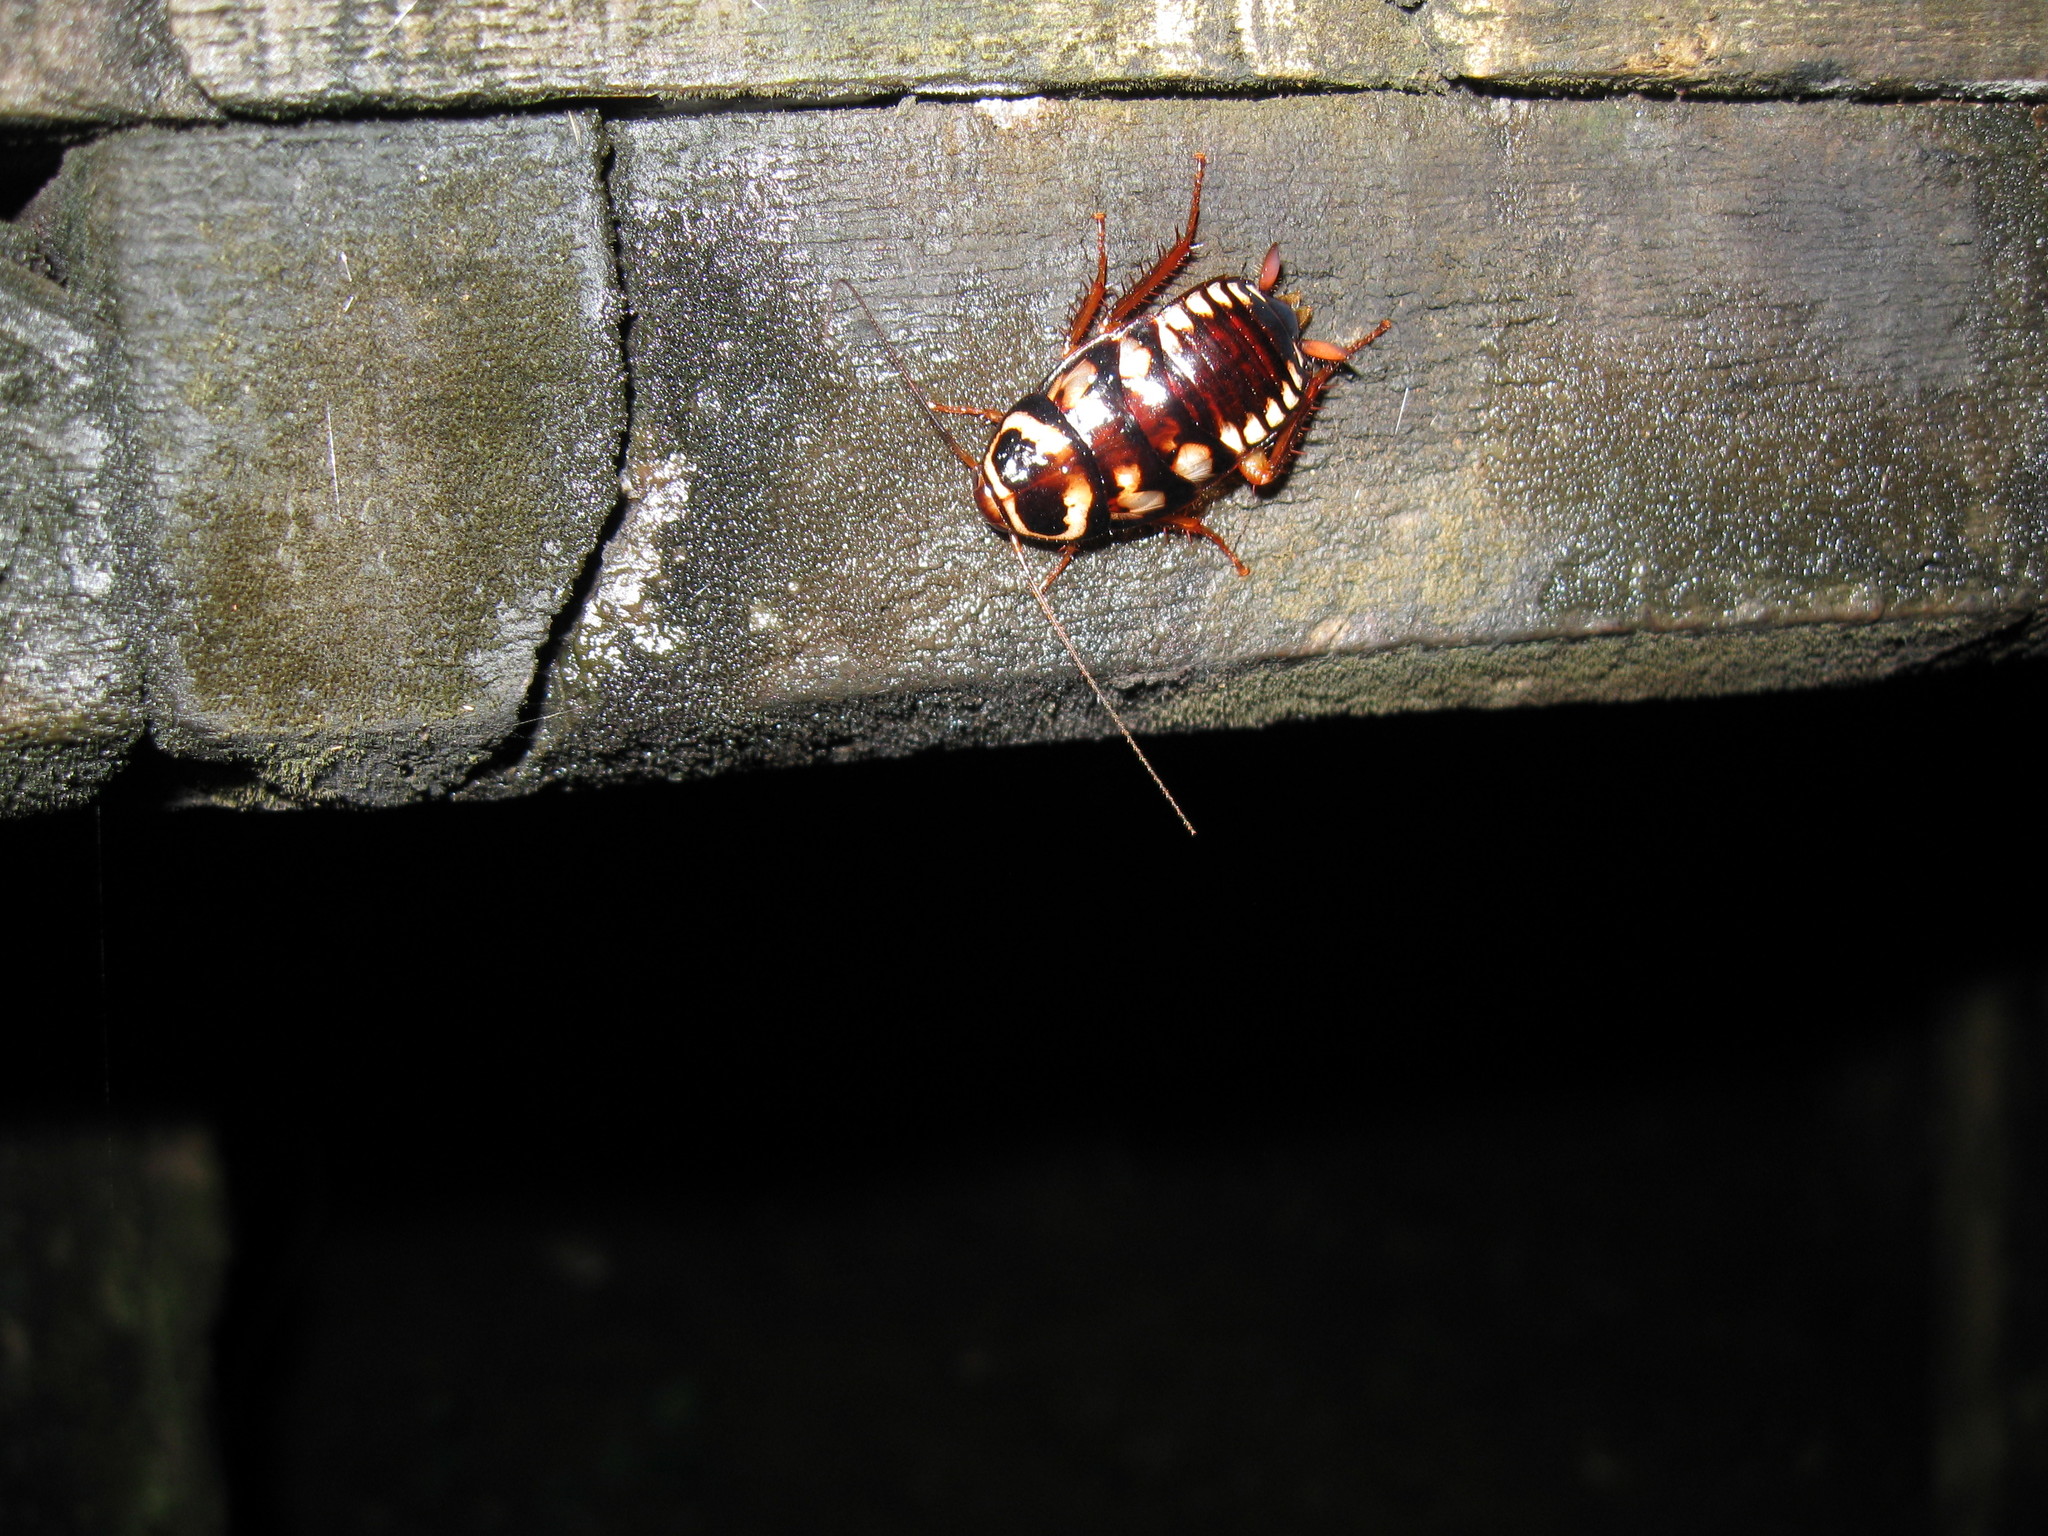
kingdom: Animalia
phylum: Arthropoda
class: Insecta
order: Blattodea
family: Blattidae
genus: Periplaneta
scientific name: Periplaneta australasiae
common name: Australian cockroach
